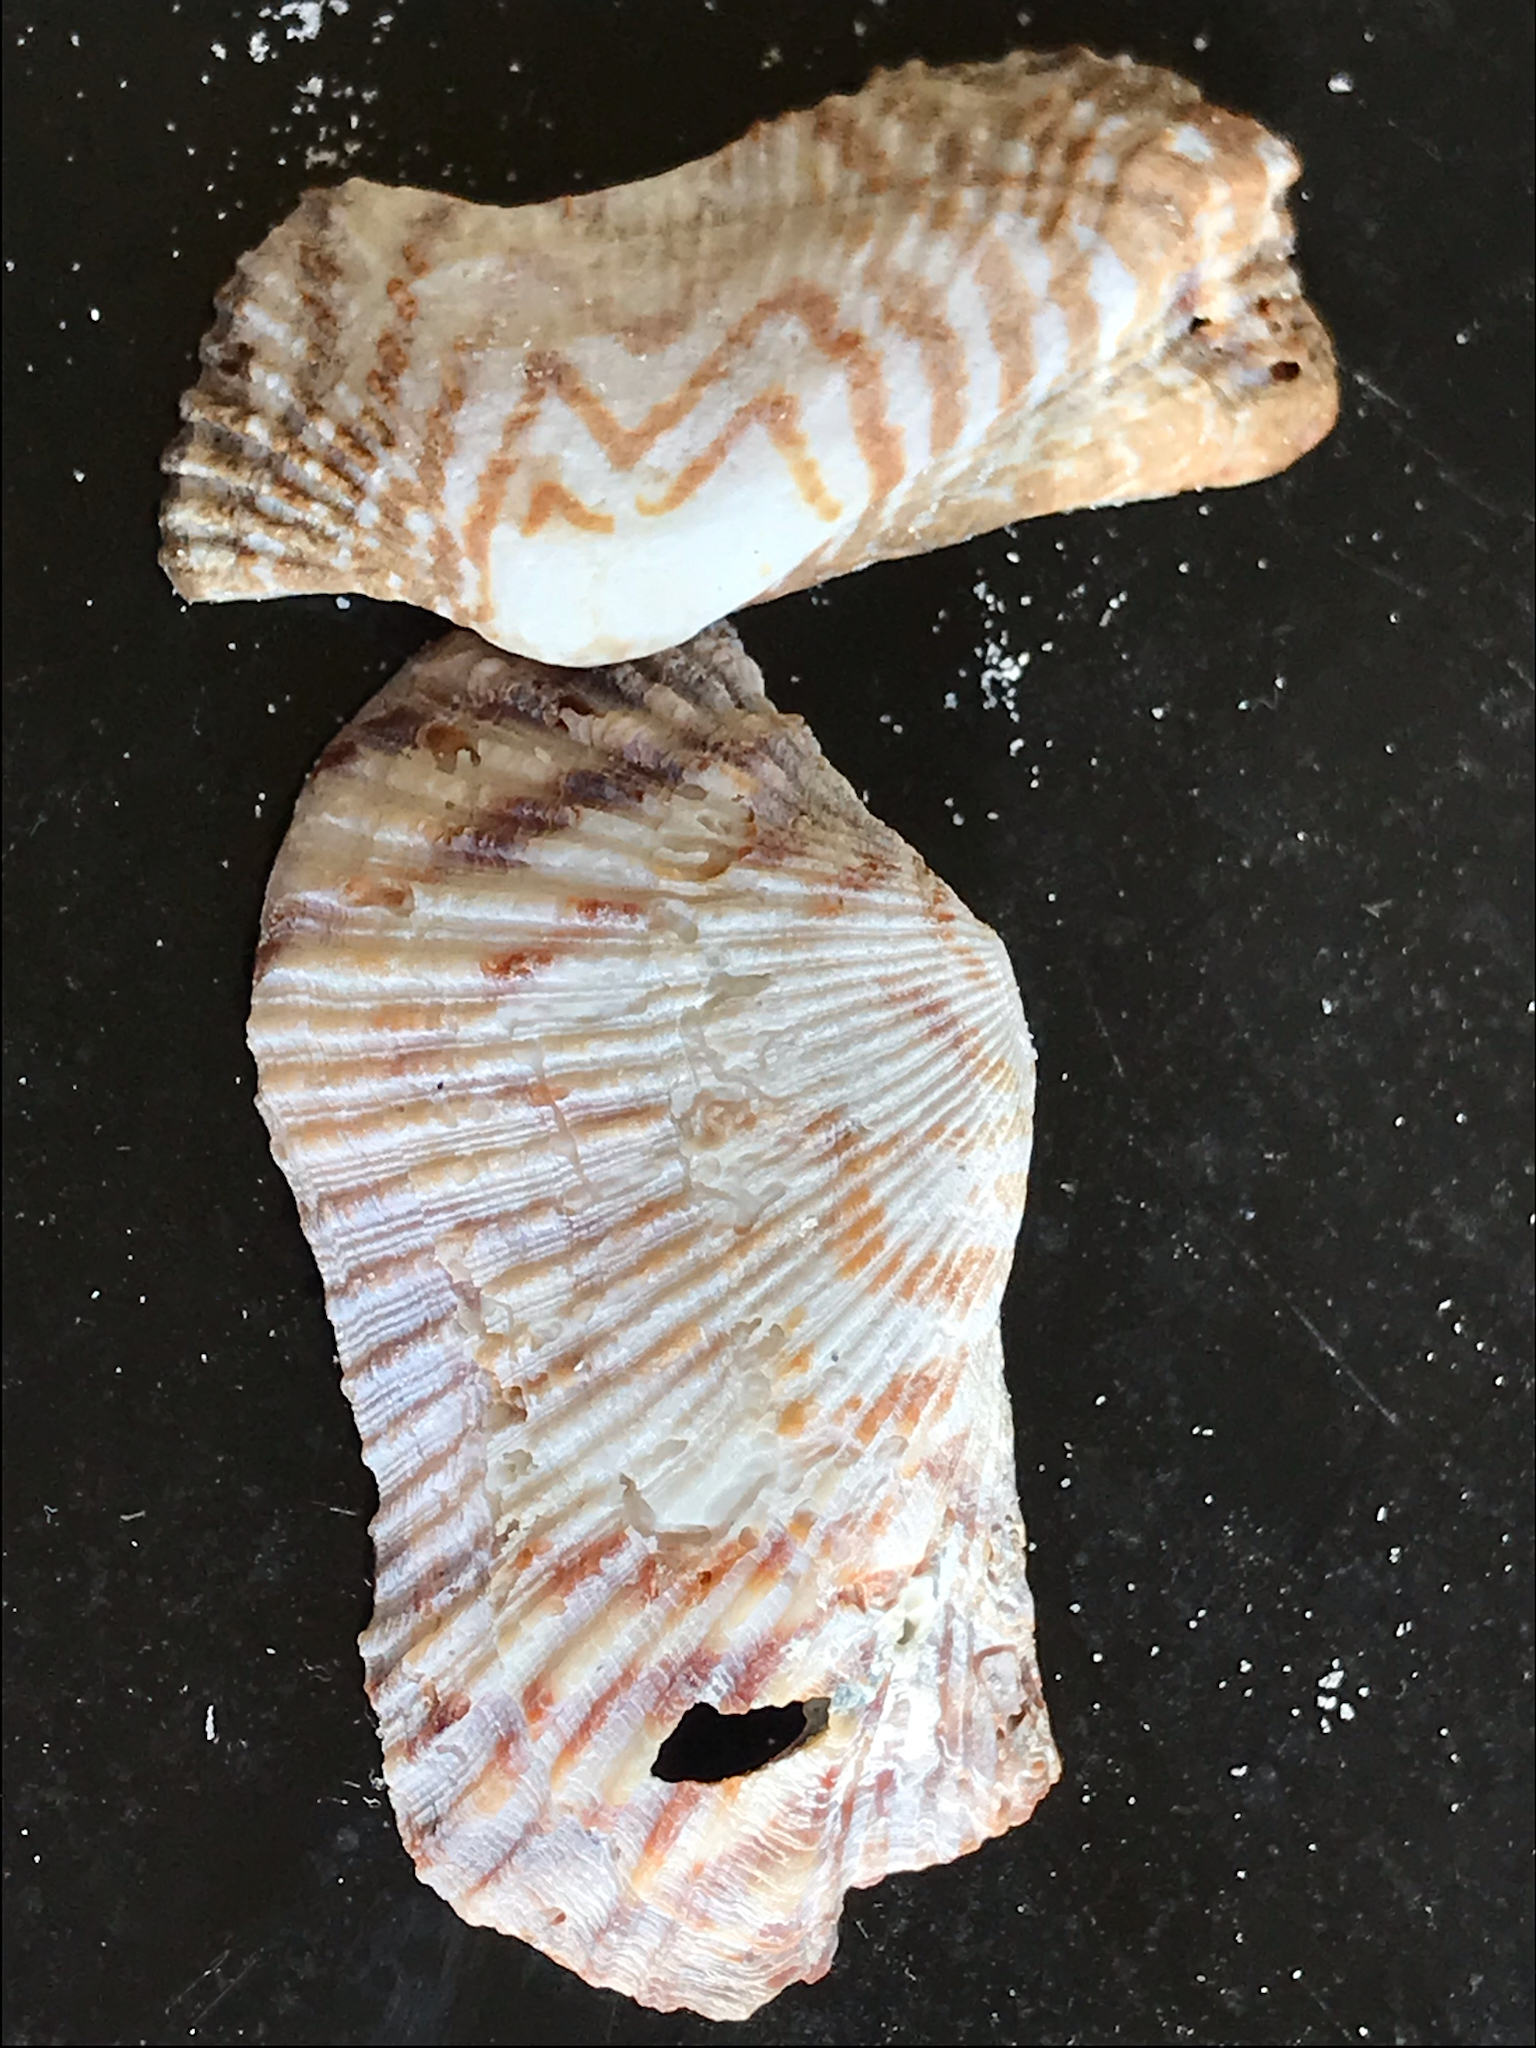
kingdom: Animalia
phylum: Mollusca
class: Bivalvia
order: Arcida
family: Arcidae
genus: Arca
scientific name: Arca zebra
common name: Atlantic turkey wing
